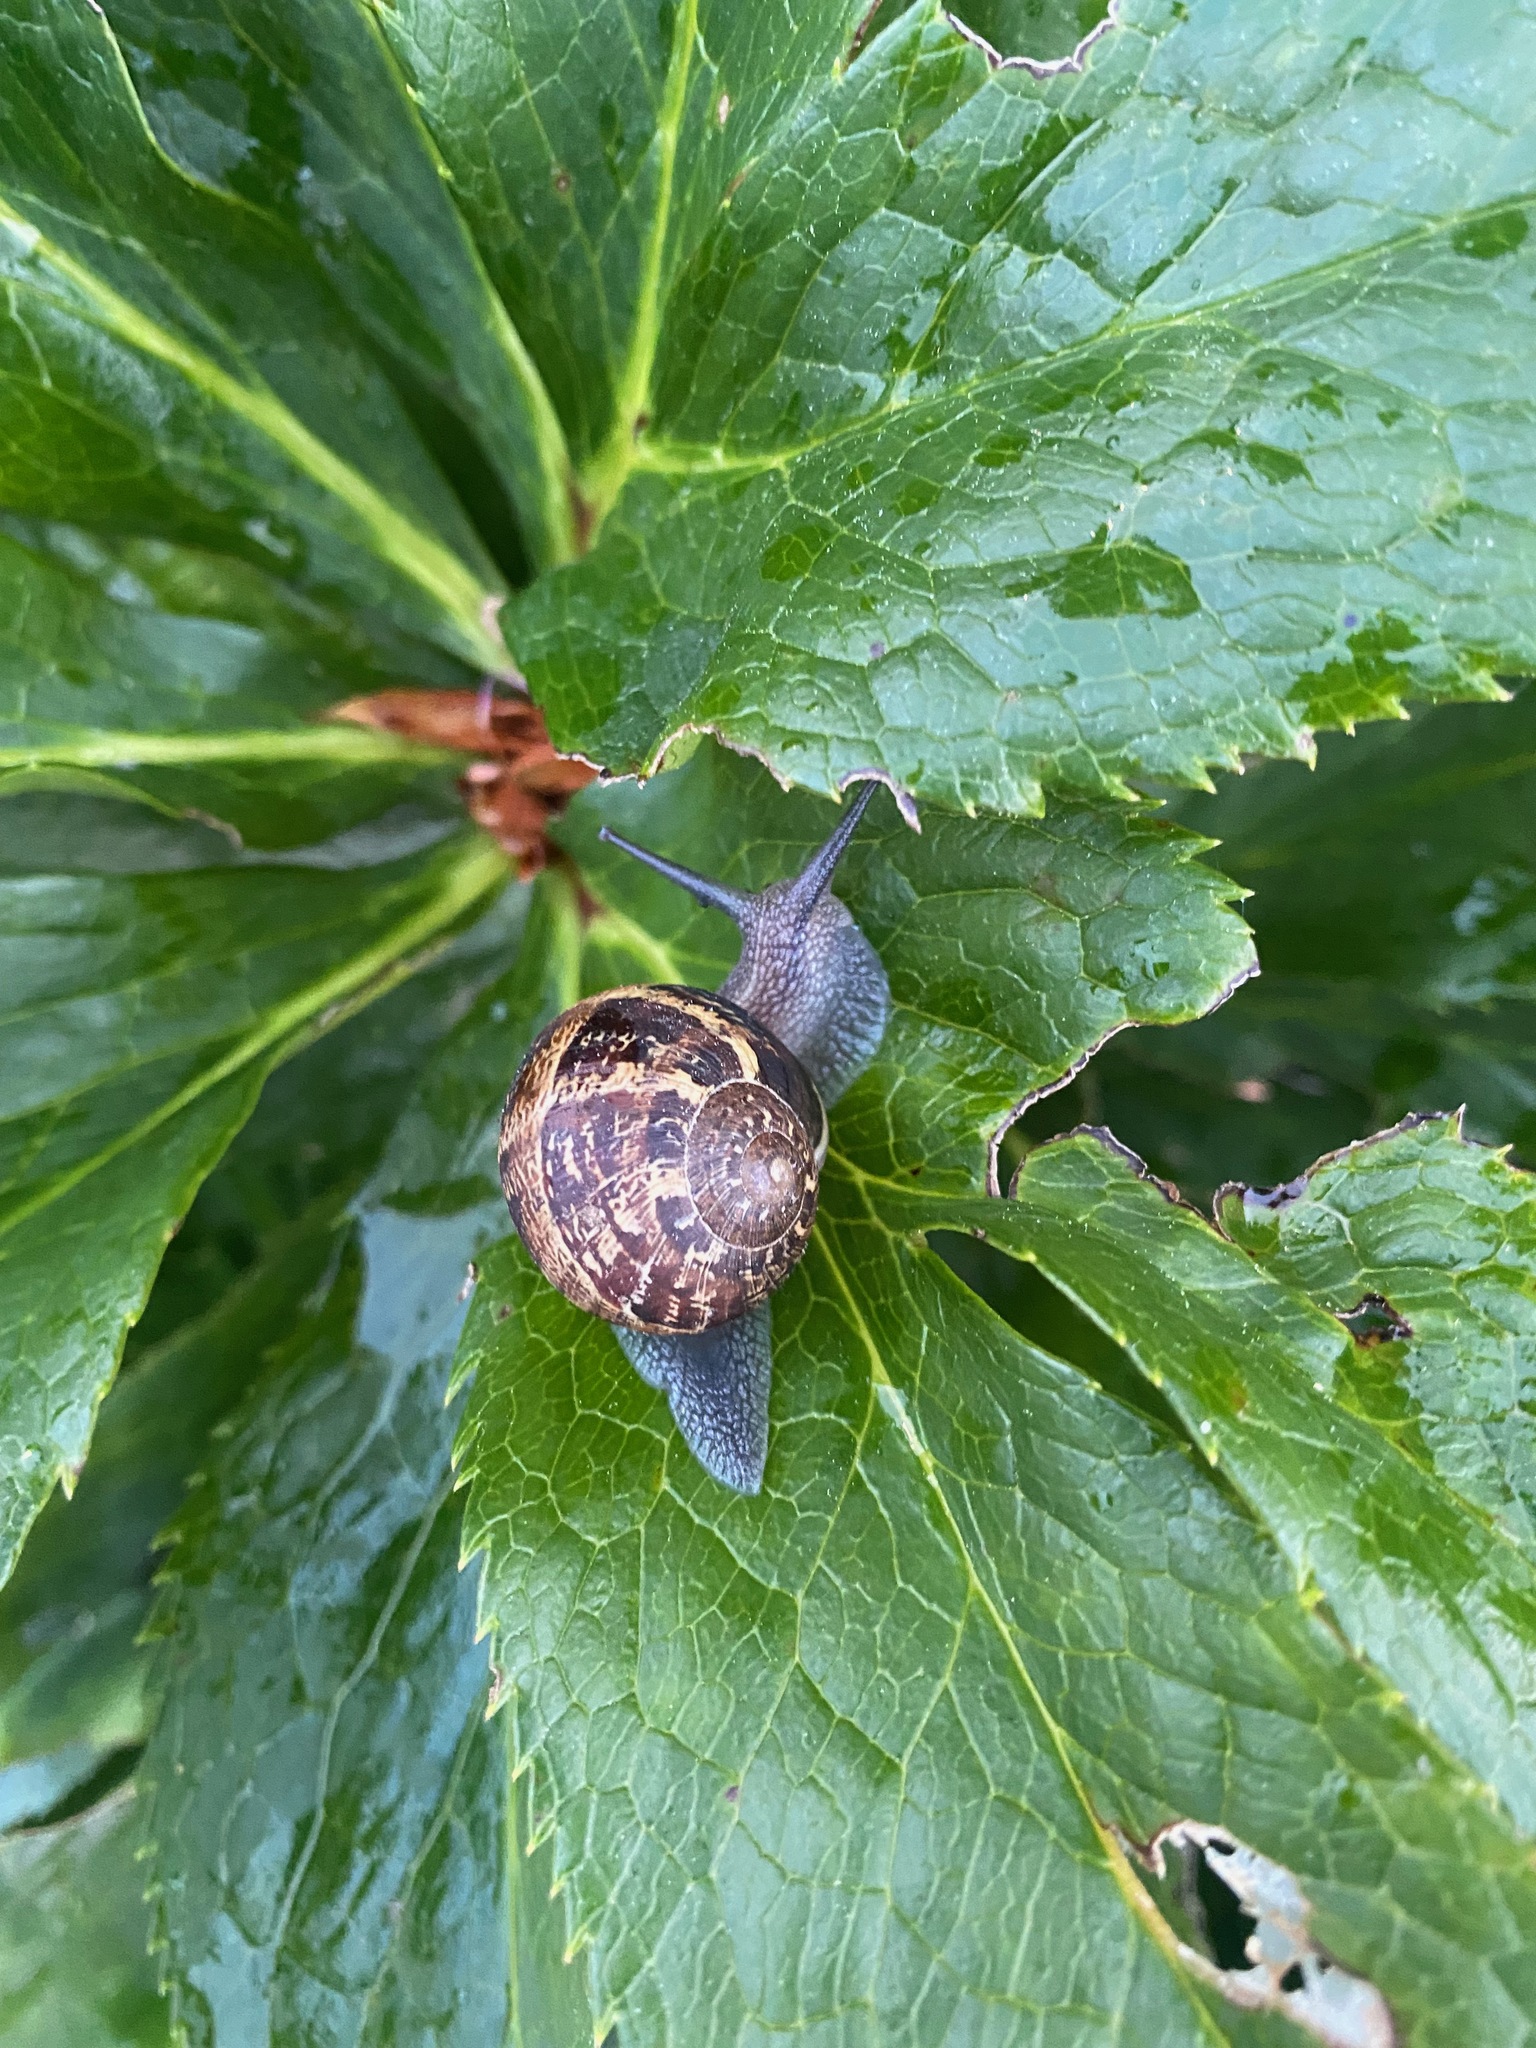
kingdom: Animalia
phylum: Mollusca
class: Gastropoda
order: Stylommatophora
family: Helicidae
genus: Cornu
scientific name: Cornu aspersum
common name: Brown garden snail
